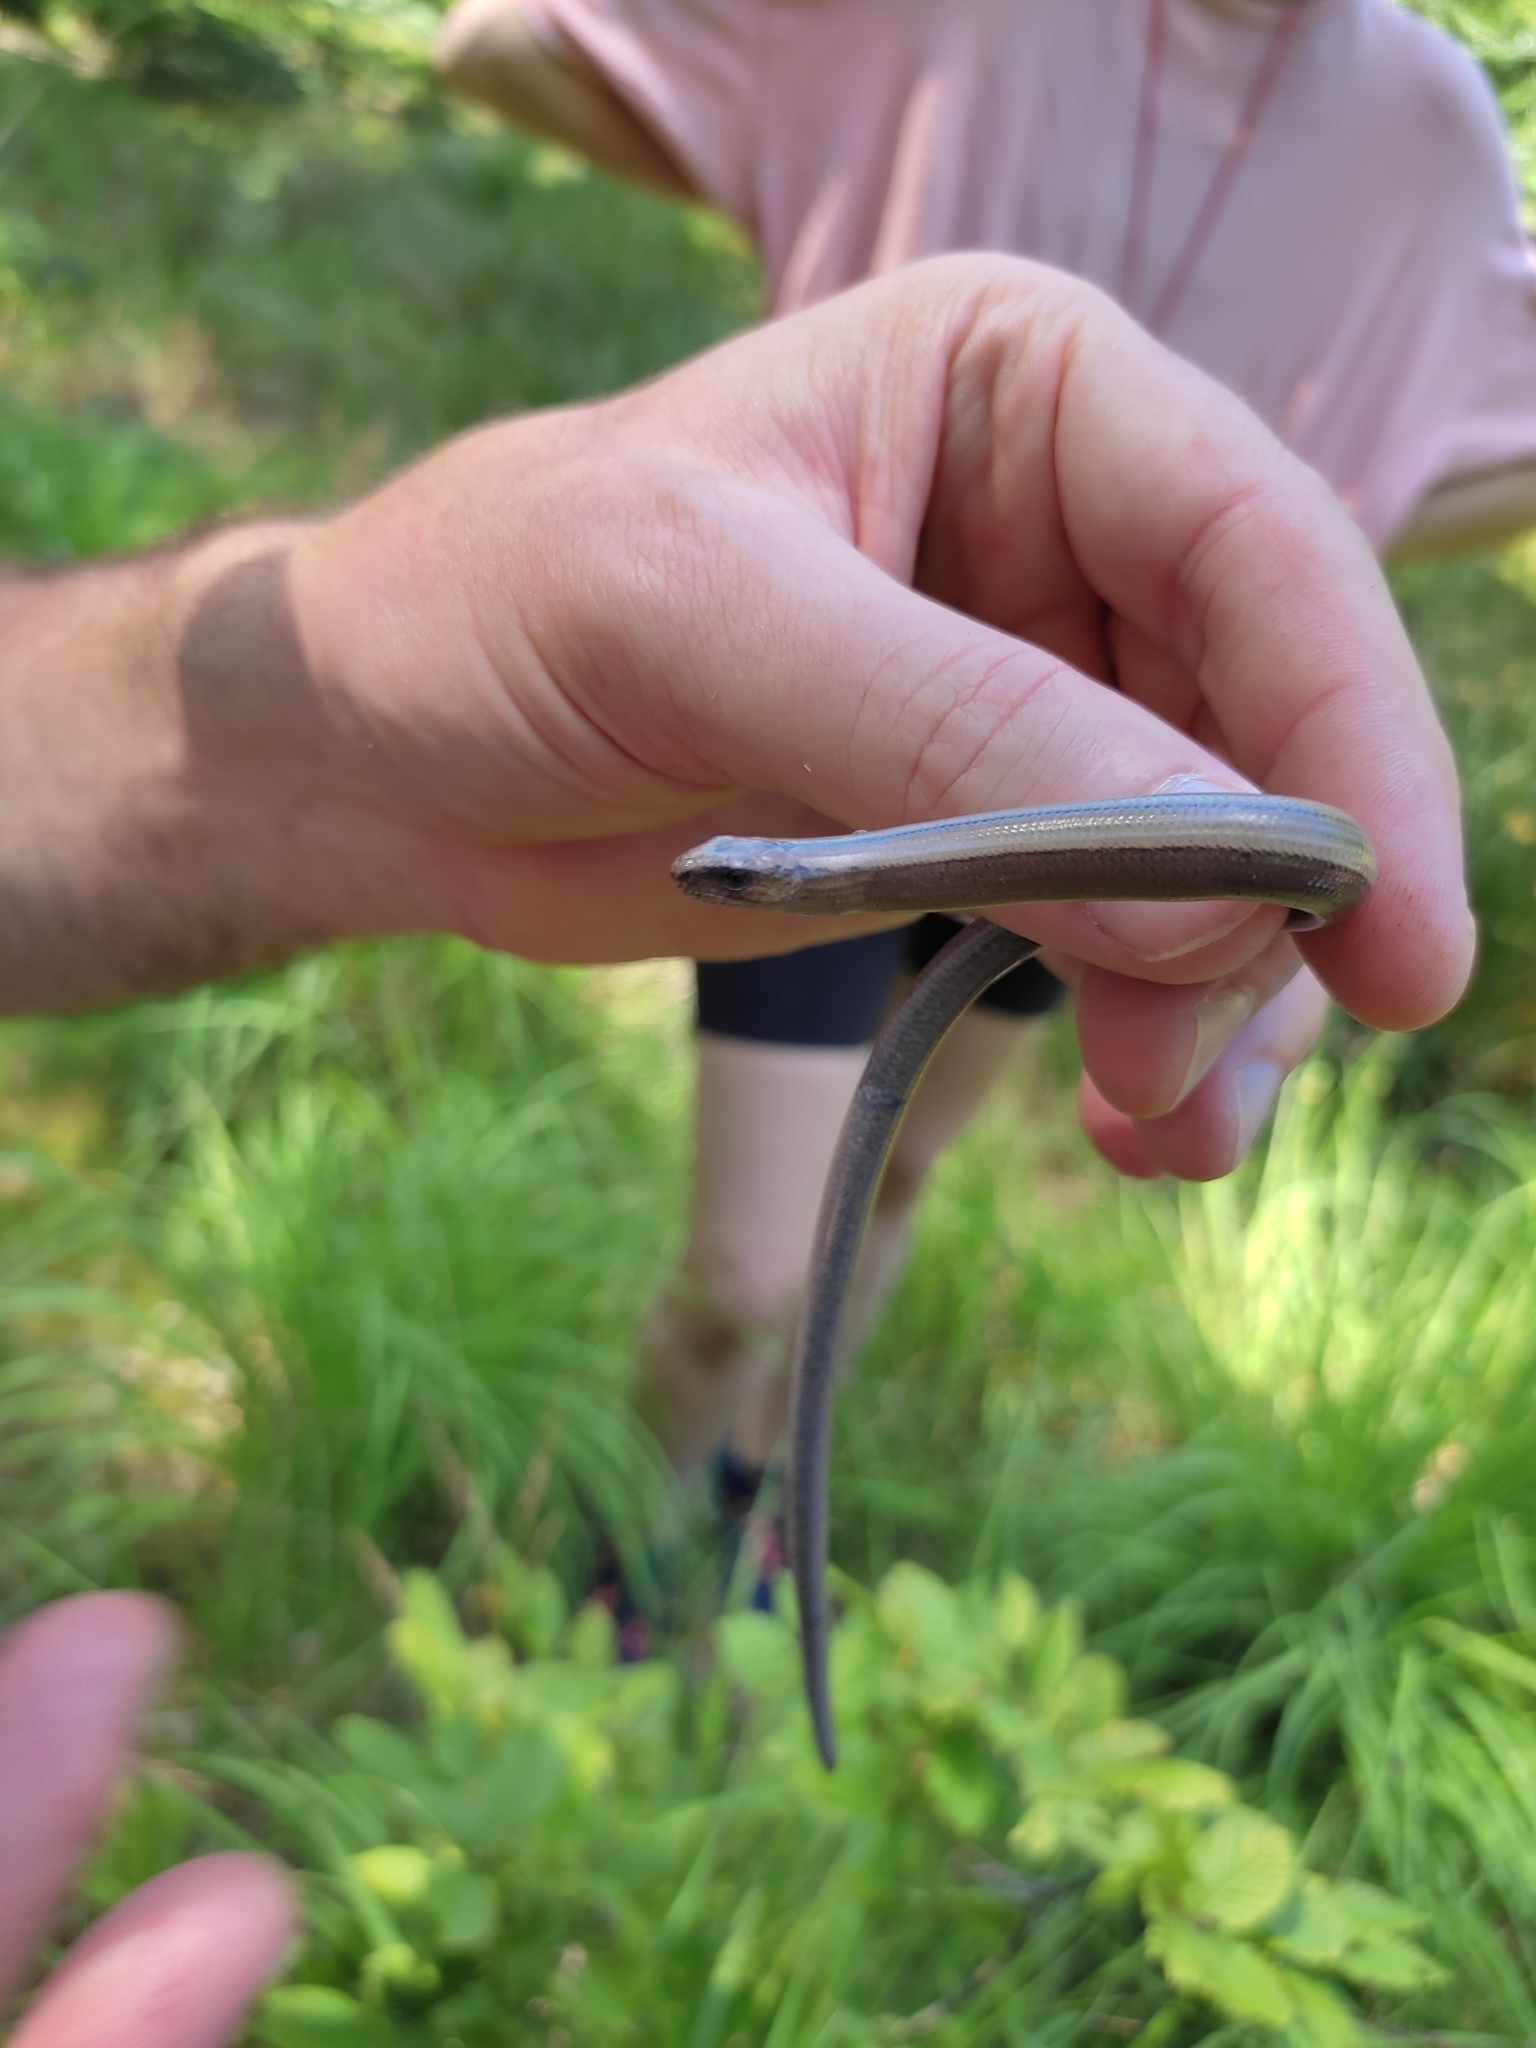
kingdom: Animalia
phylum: Chordata
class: Squamata
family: Anguidae
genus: Anguis
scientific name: Anguis fragilis
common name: Slow worm
